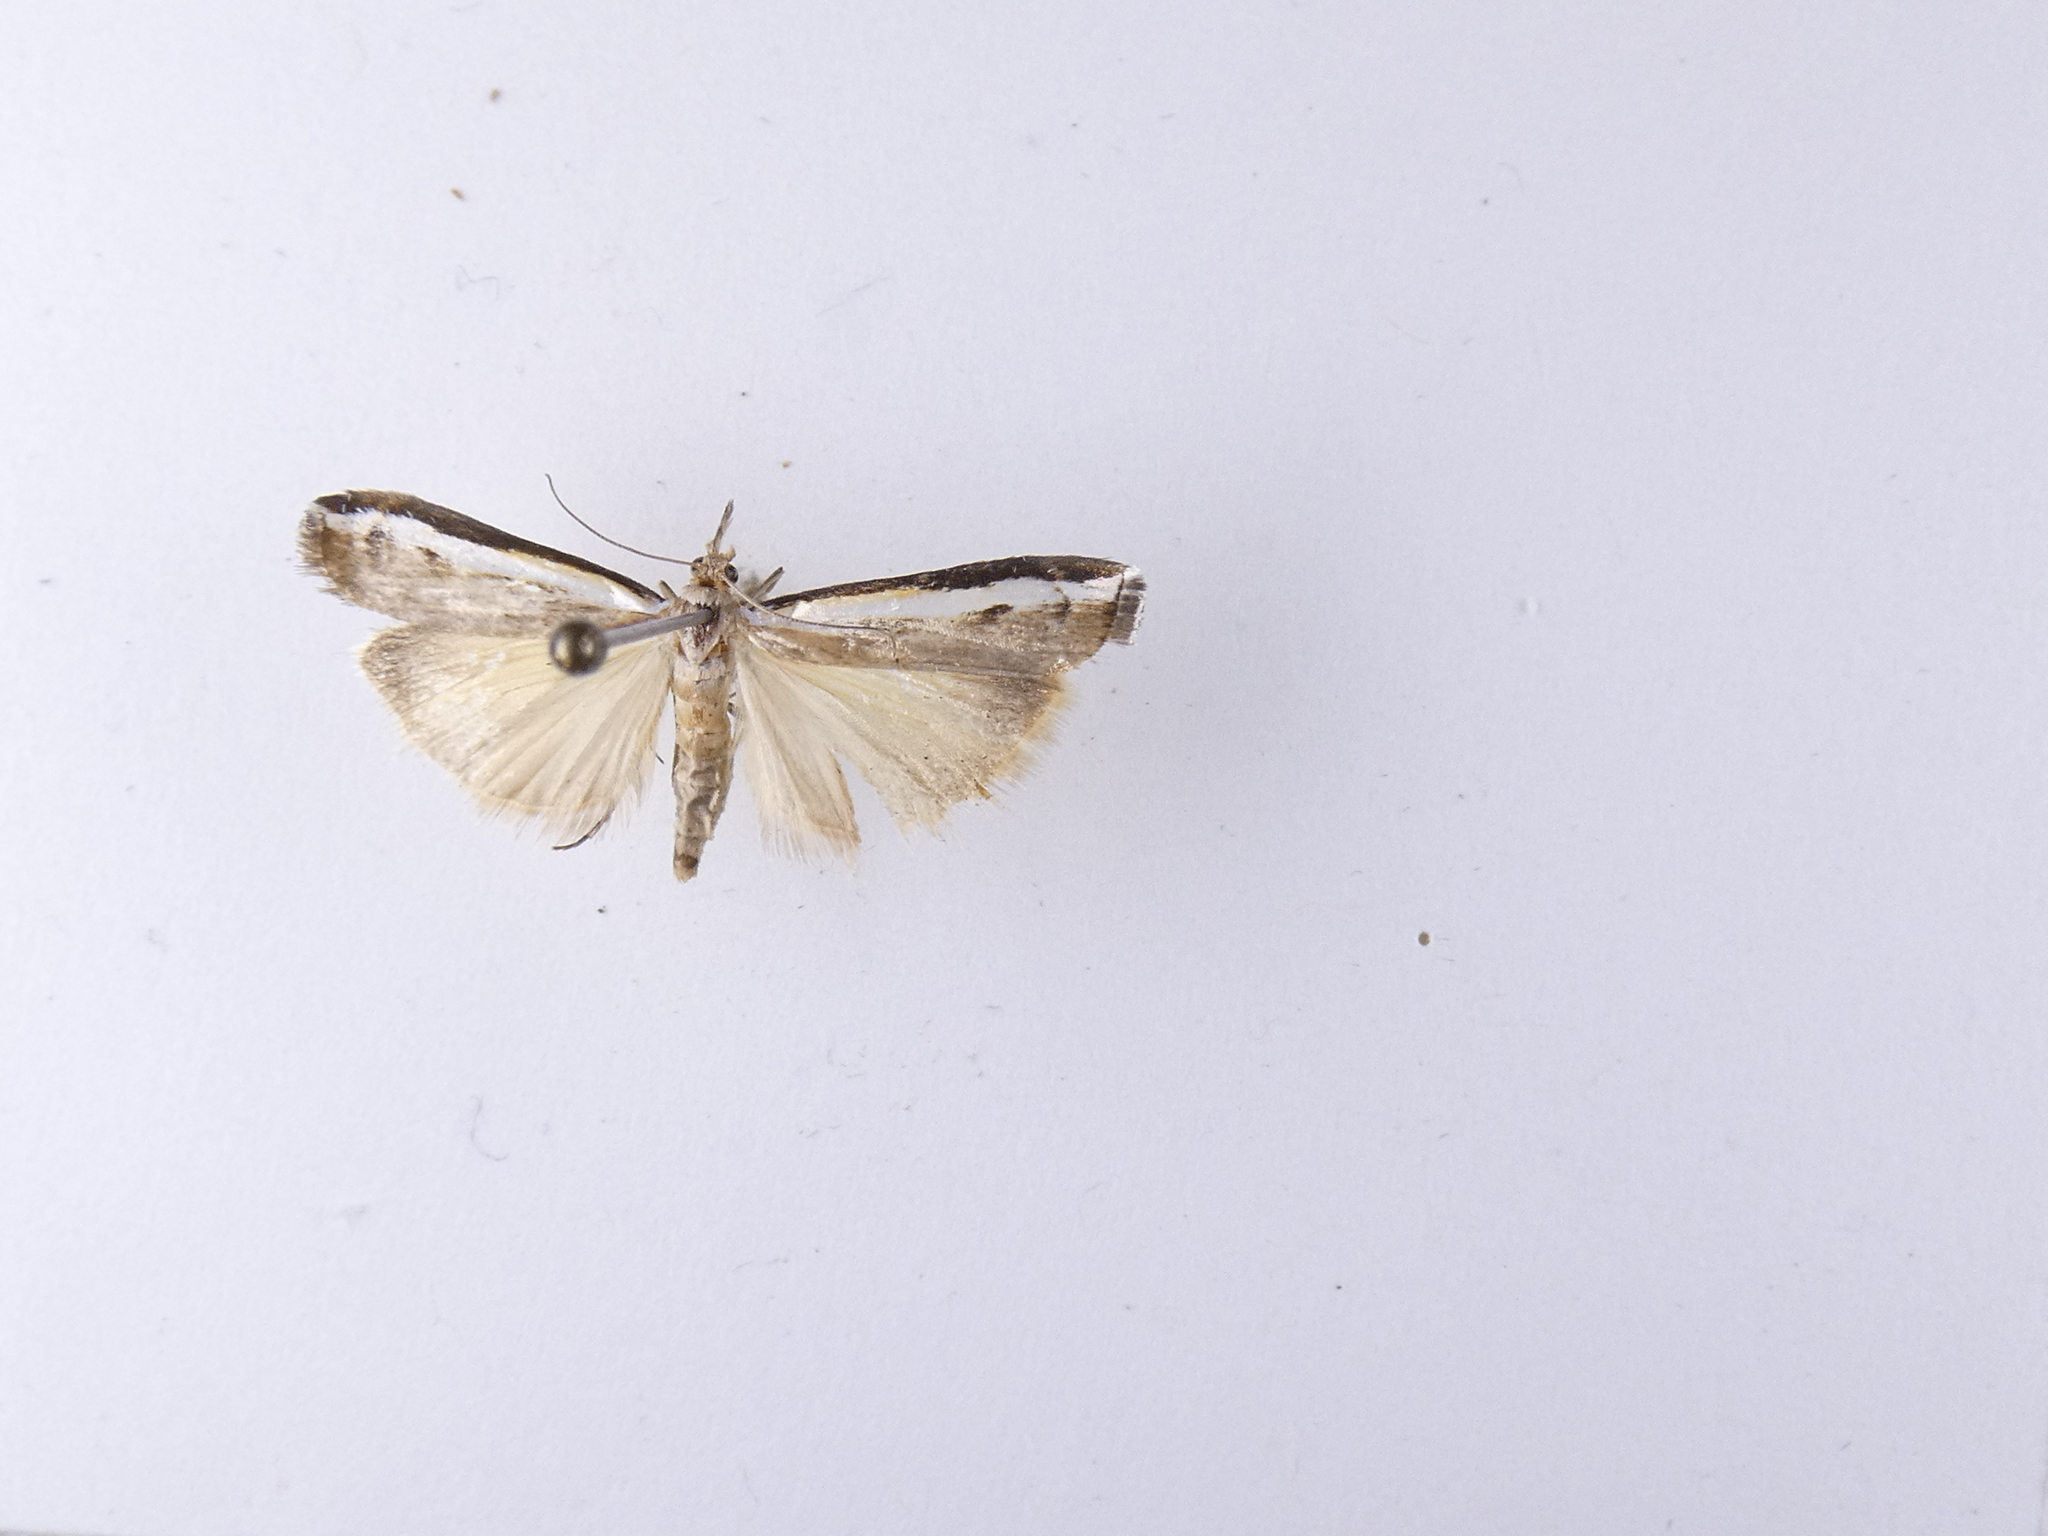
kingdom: Animalia
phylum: Arthropoda
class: Insecta
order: Lepidoptera
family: Crambidae
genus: Orocrambus
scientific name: Orocrambus flexuosellus
